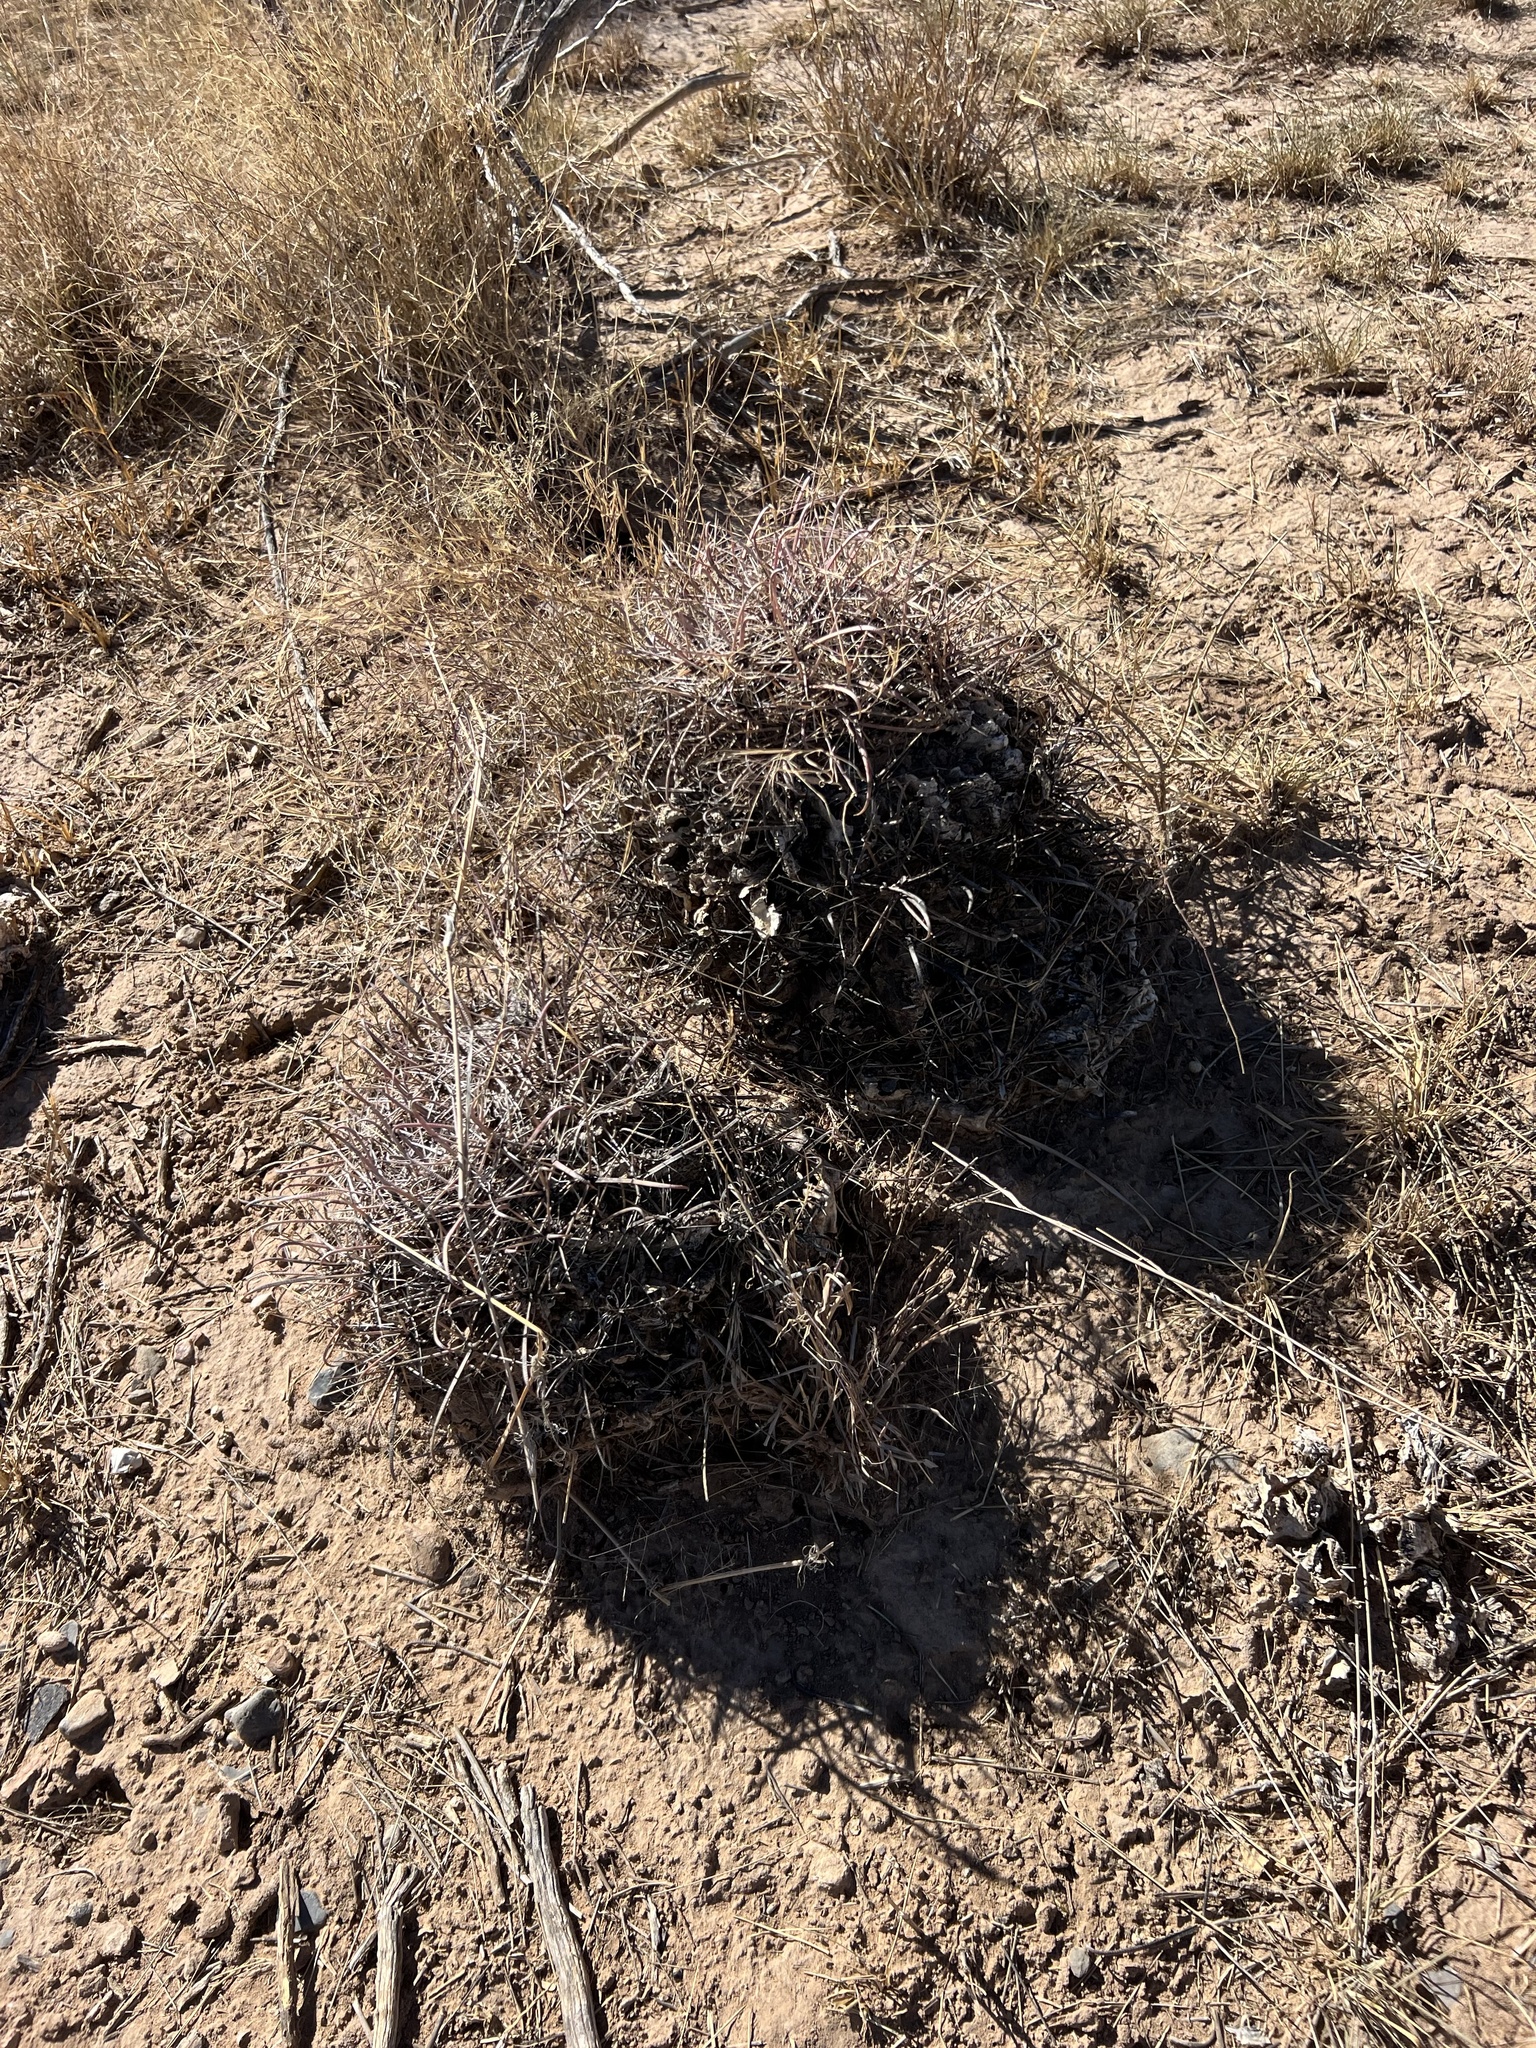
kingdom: Plantae
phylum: Tracheophyta
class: Magnoliopsida
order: Caryophyllales
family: Cactaceae
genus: Ferocactus
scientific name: Ferocactus wislizeni
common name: Candy barrel cactus
